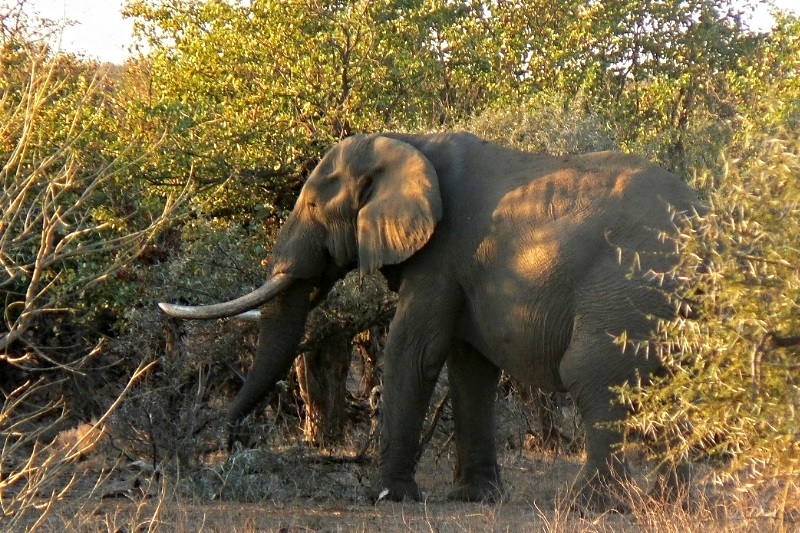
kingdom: Animalia
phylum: Chordata
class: Mammalia
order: Proboscidea
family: Elephantidae
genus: Loxodonta
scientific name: Loxodonta africana
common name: African elephant
